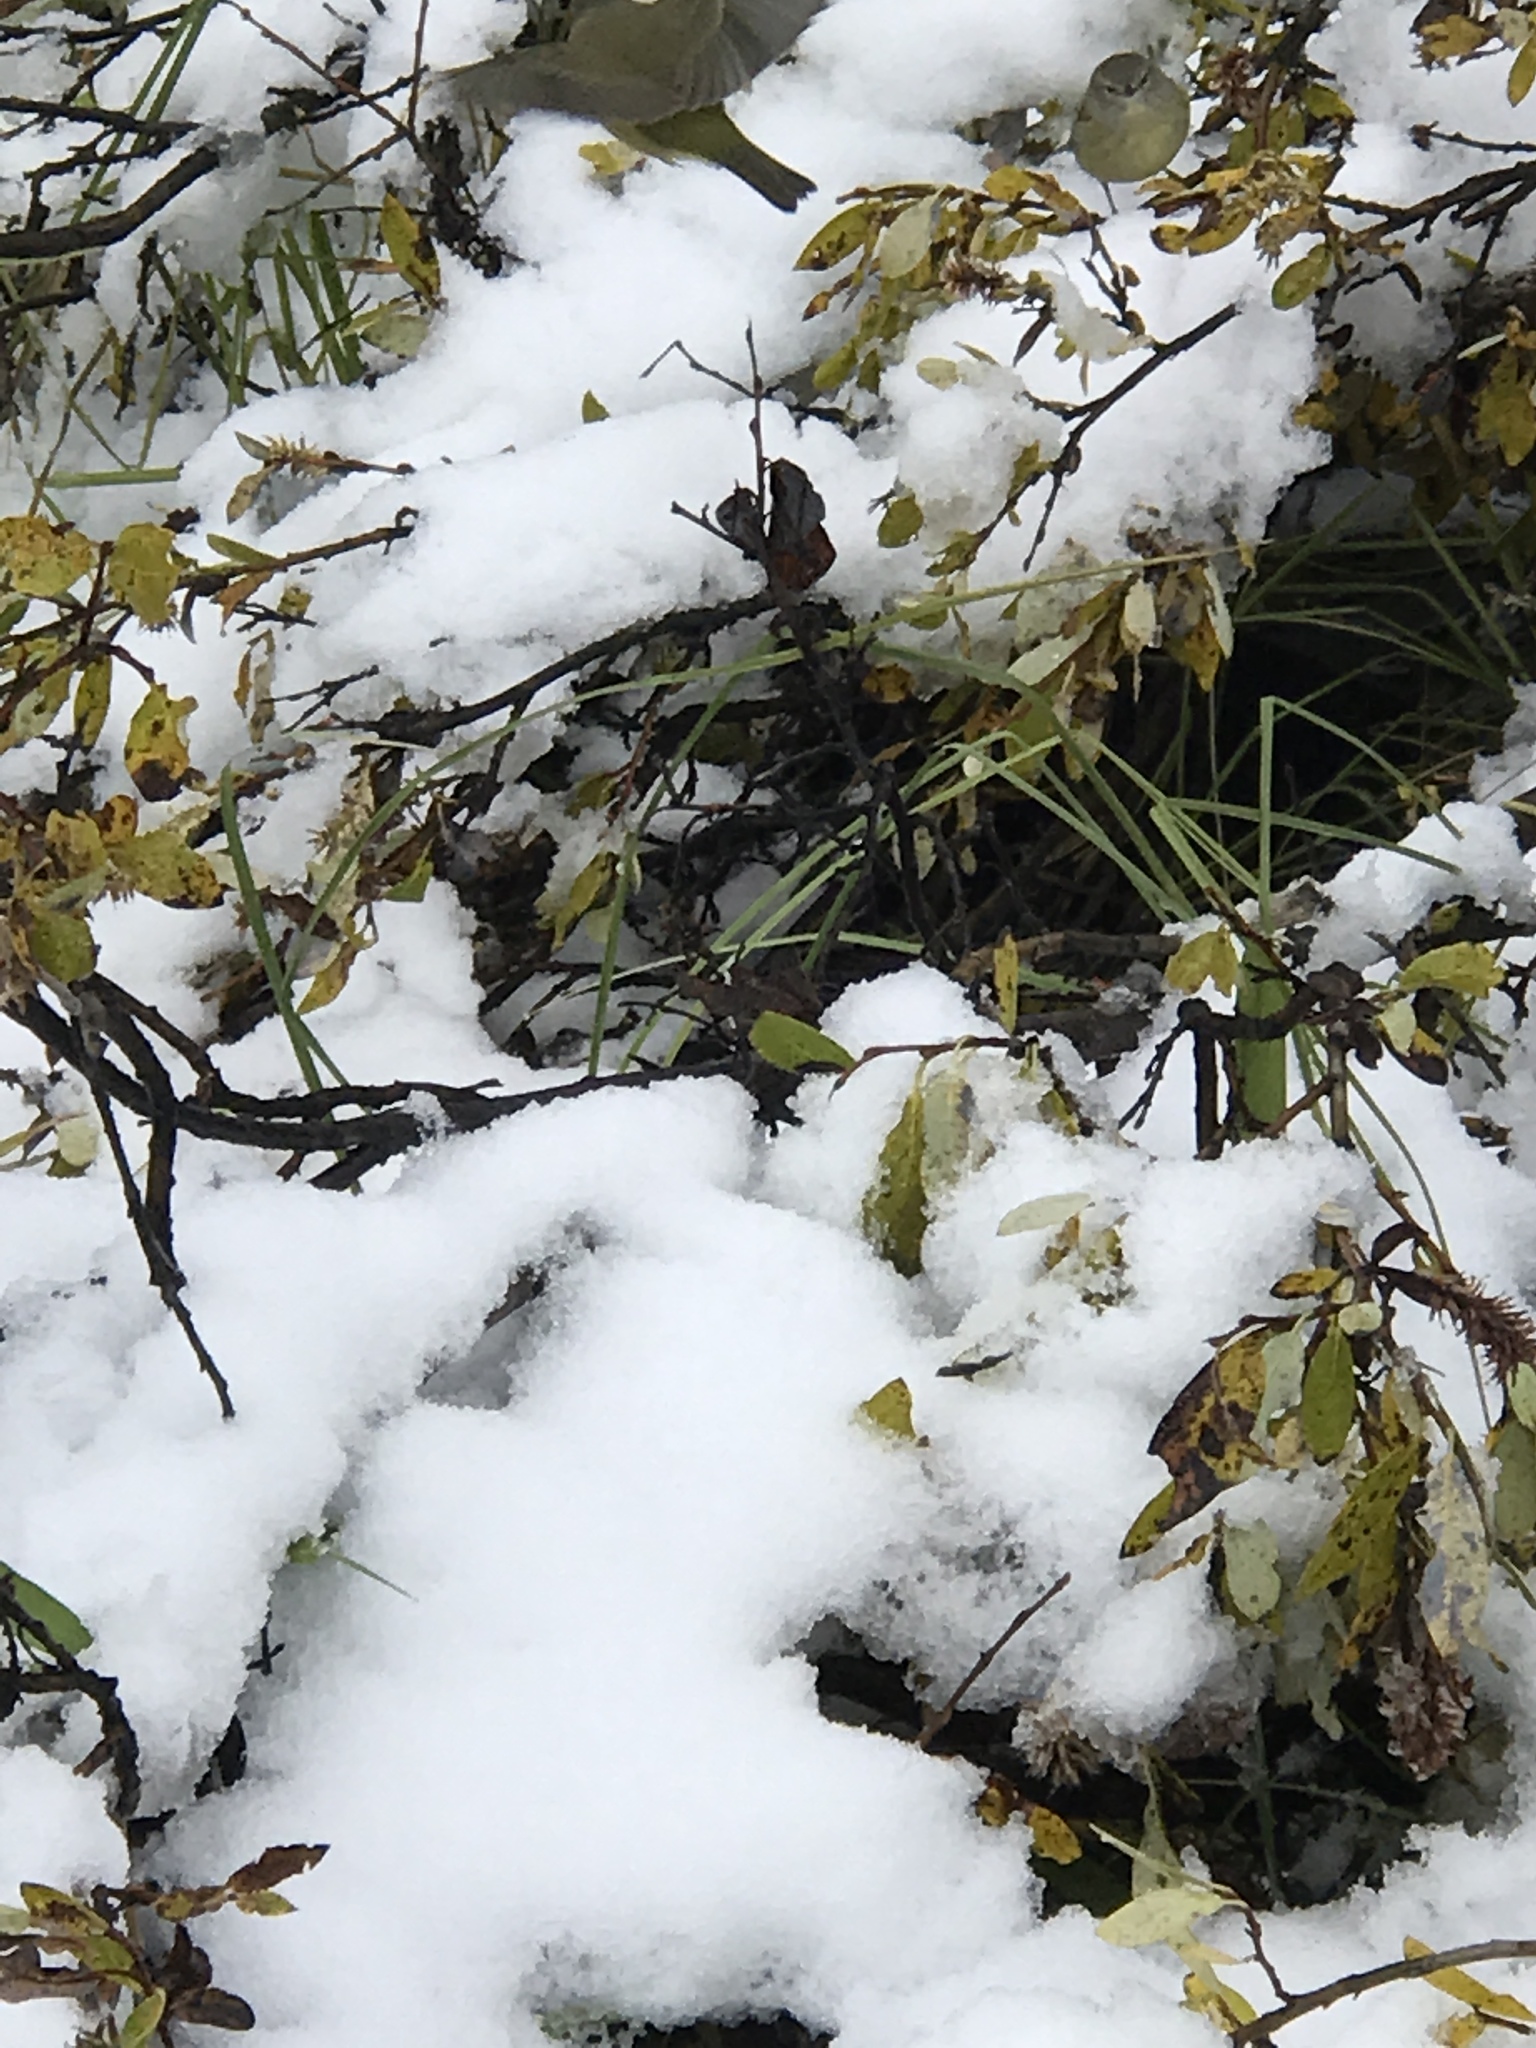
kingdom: Animalia
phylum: Chordata
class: Aves
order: Passeriformes
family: Parulidae
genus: Leiothlypis
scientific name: Leiothlypis celata
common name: Orange-crowned warbler
